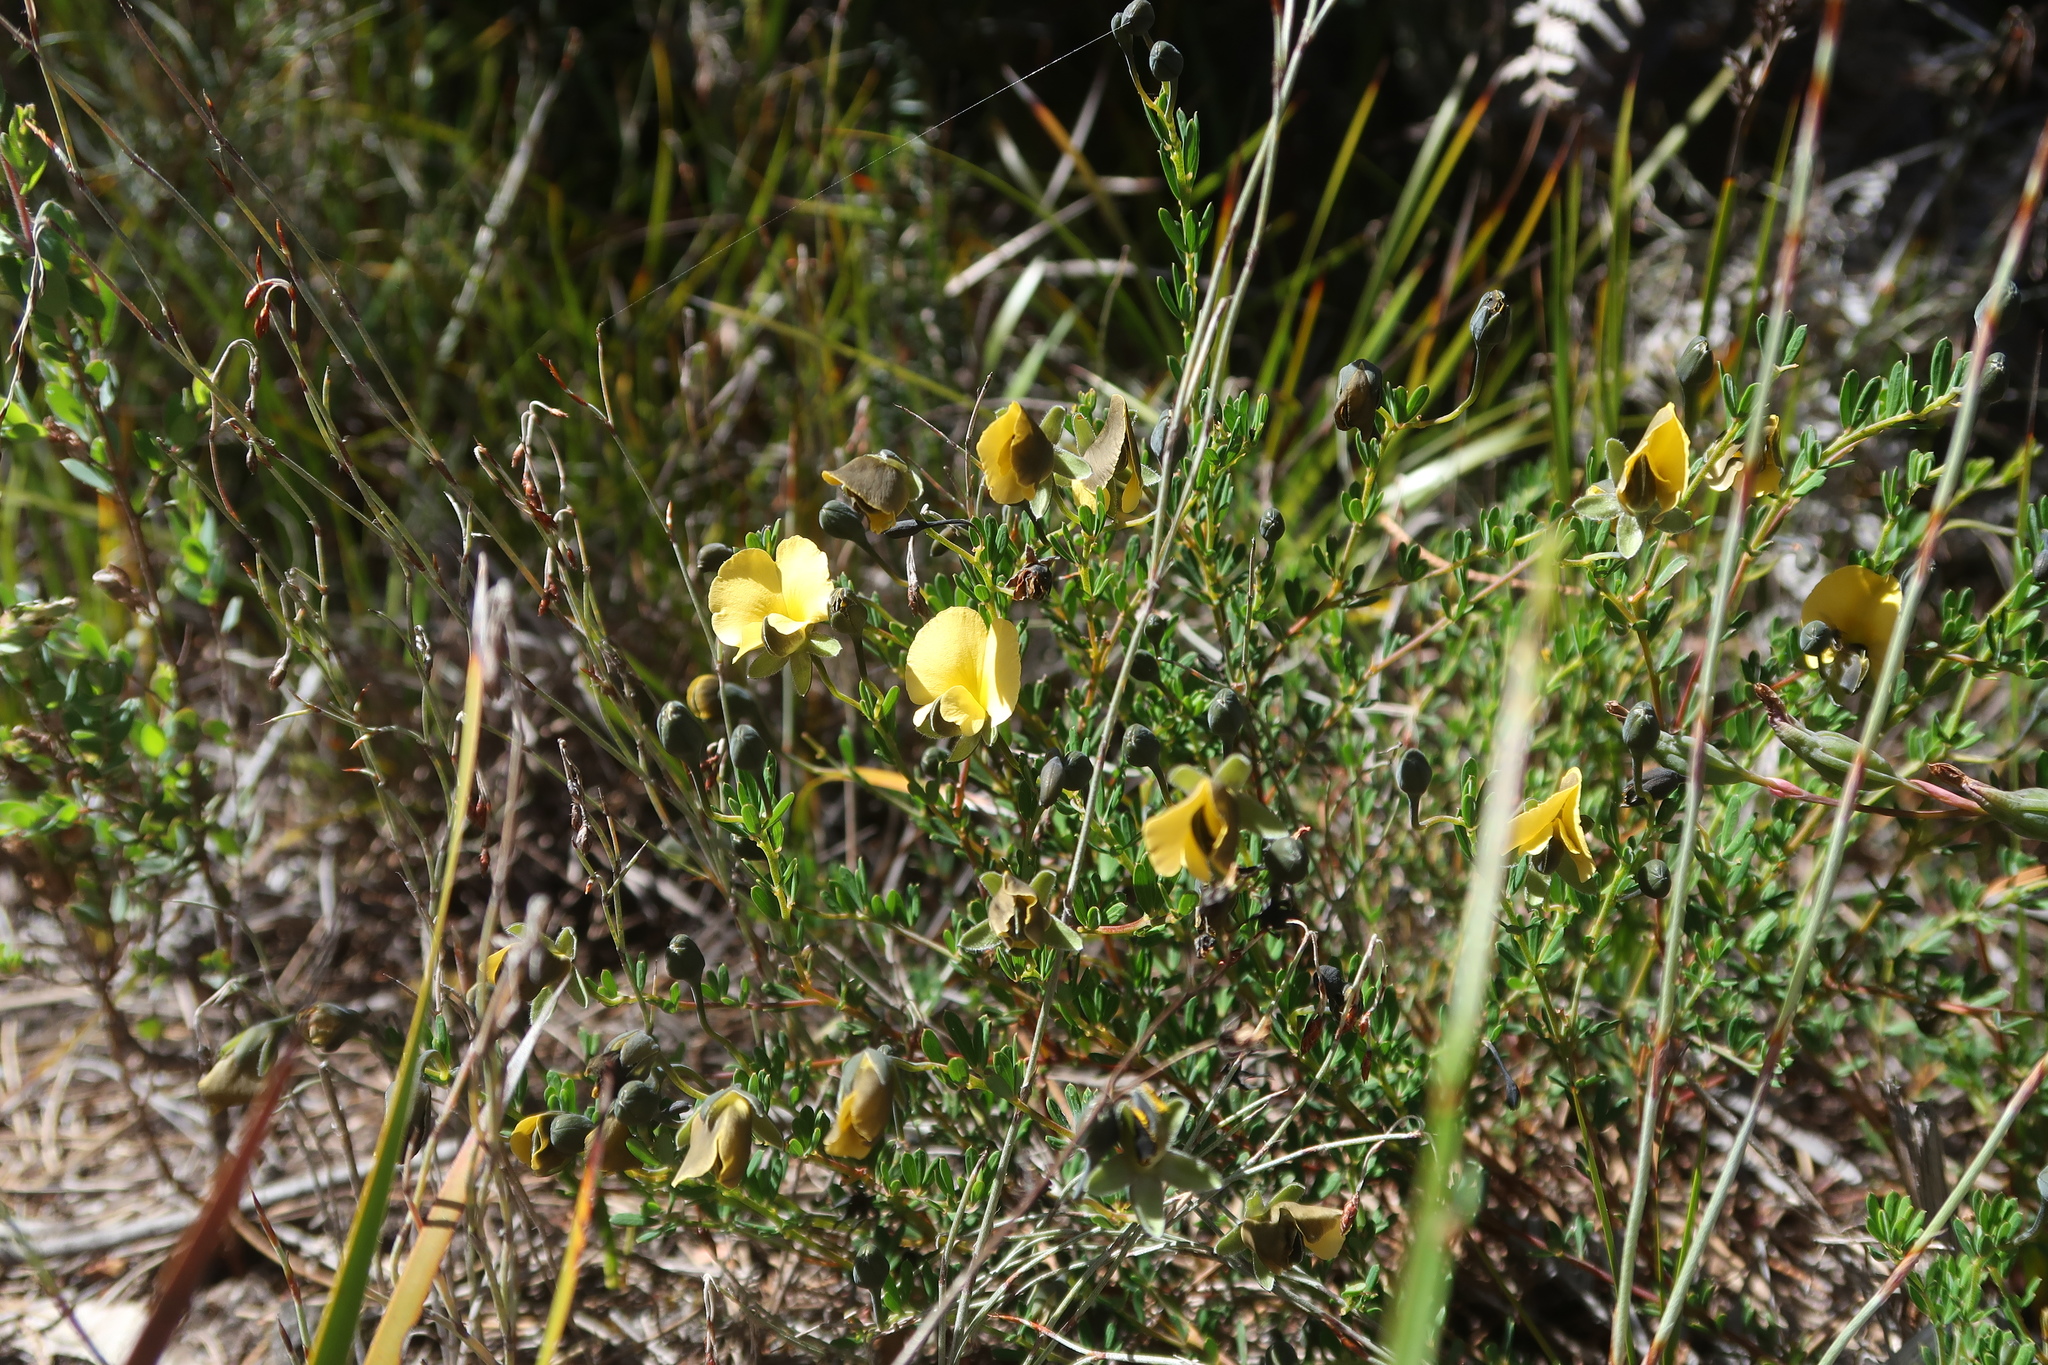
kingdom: Plantae
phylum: Tracheophyta
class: Magnoliopsida
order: Fabales
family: Fabaceae
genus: Gompholobium
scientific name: Gompholobium huegelii
